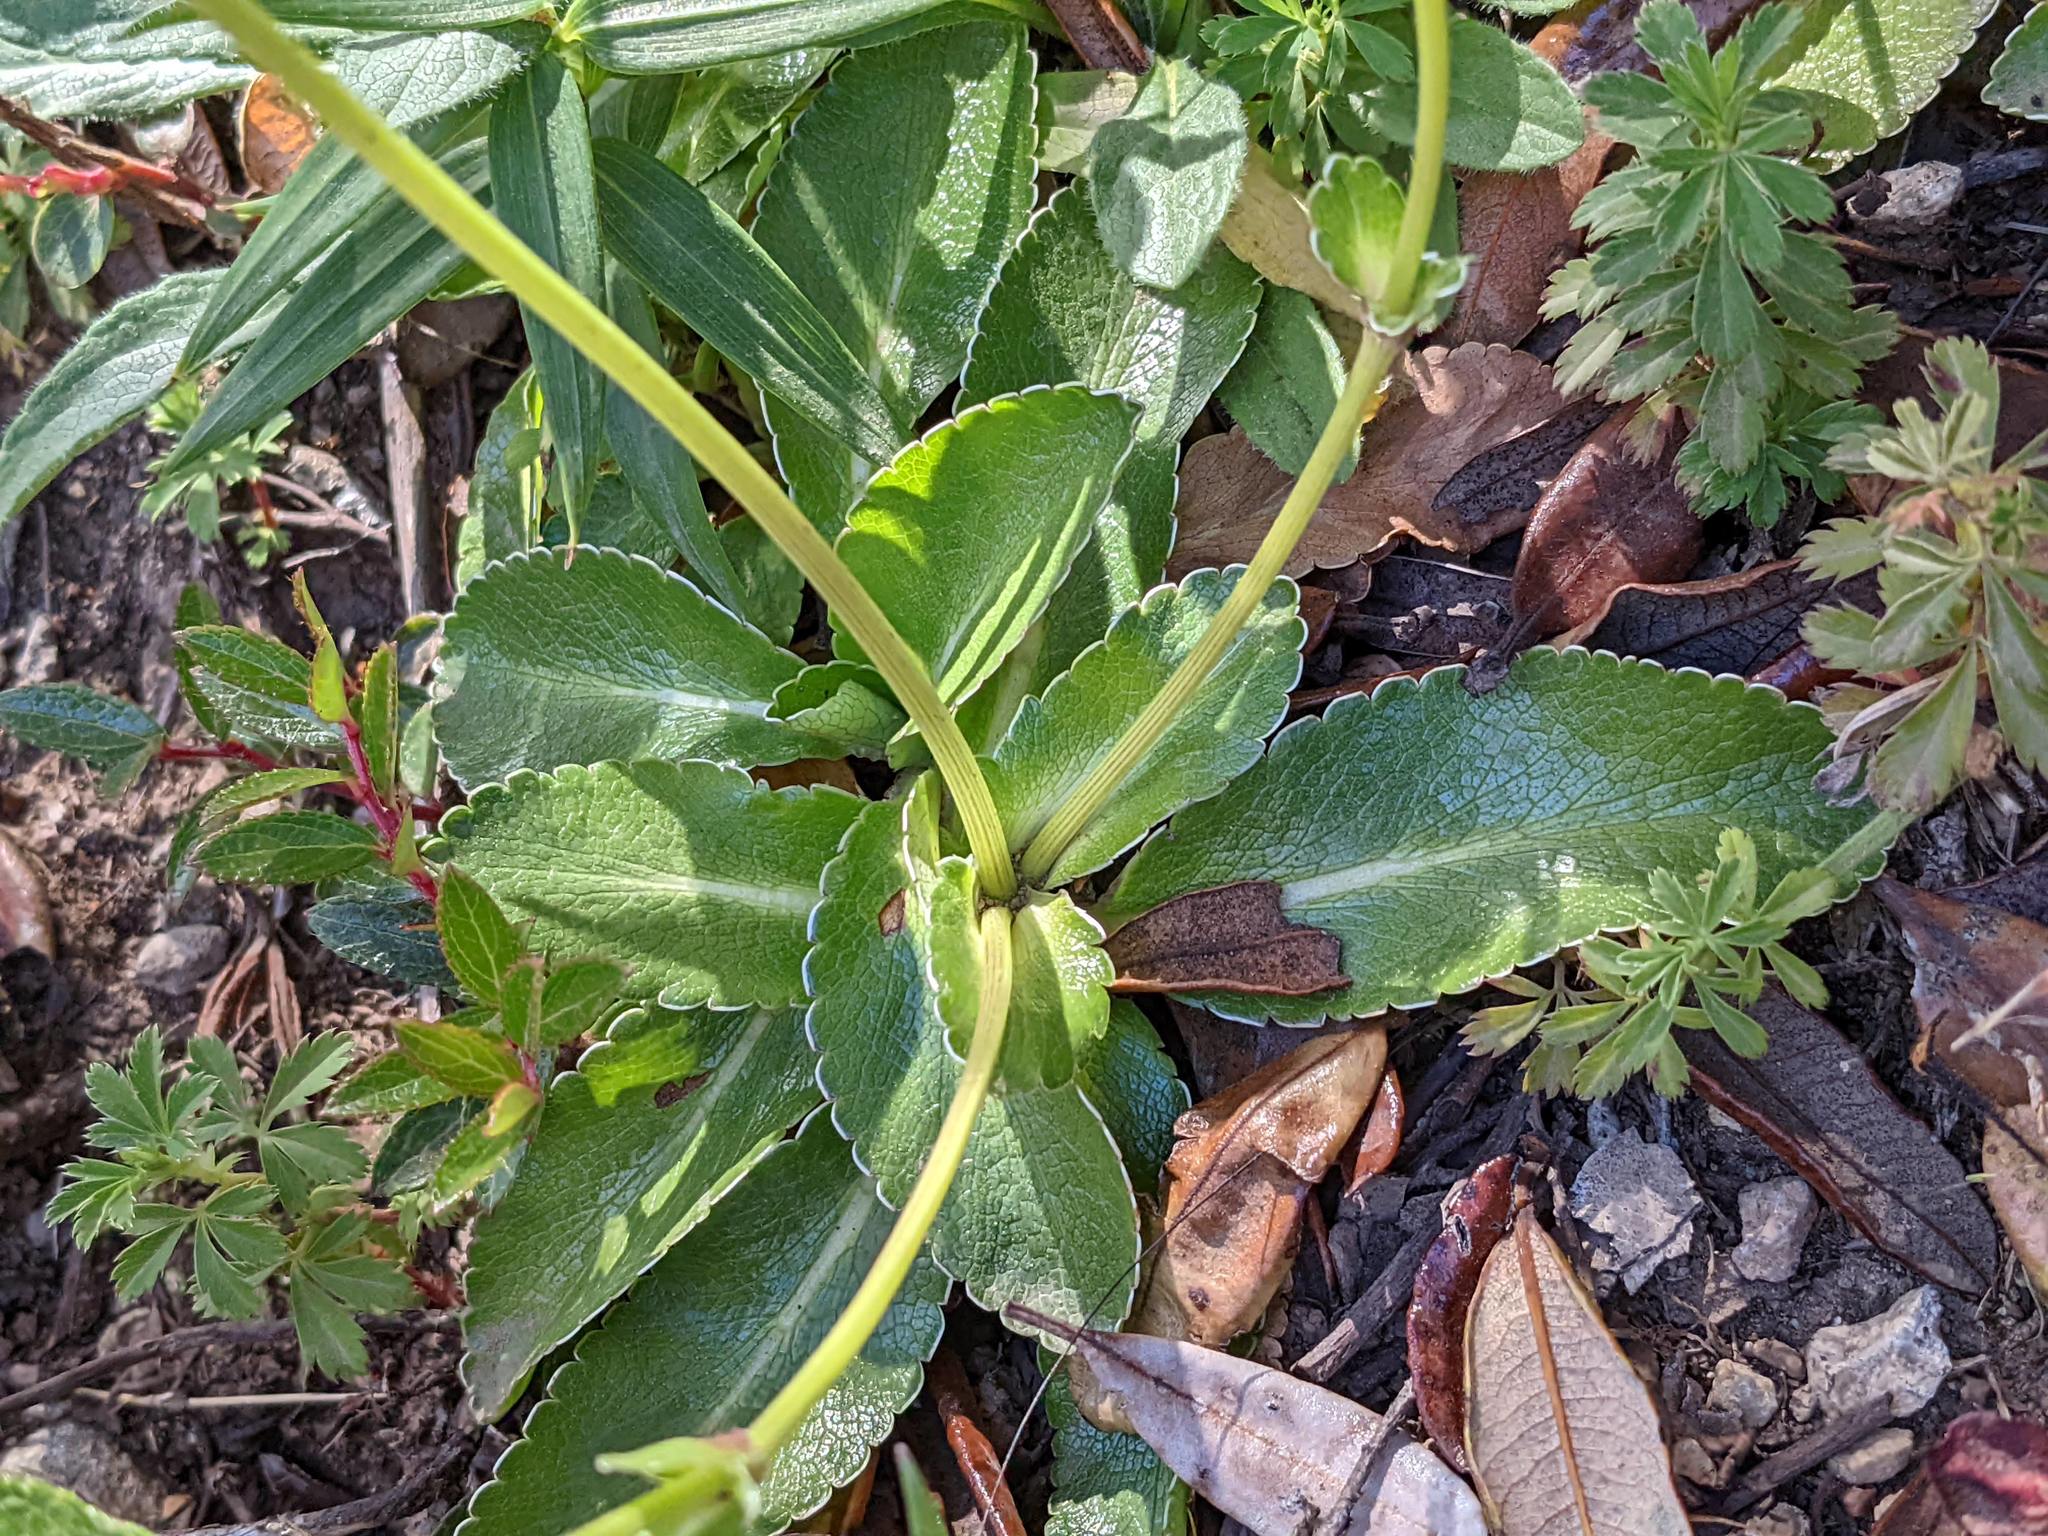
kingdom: Plantae
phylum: Tracheophyta
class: Magnoliopsida
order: Apiales
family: Apiaceae
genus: Eryngium
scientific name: Eryngium humile
